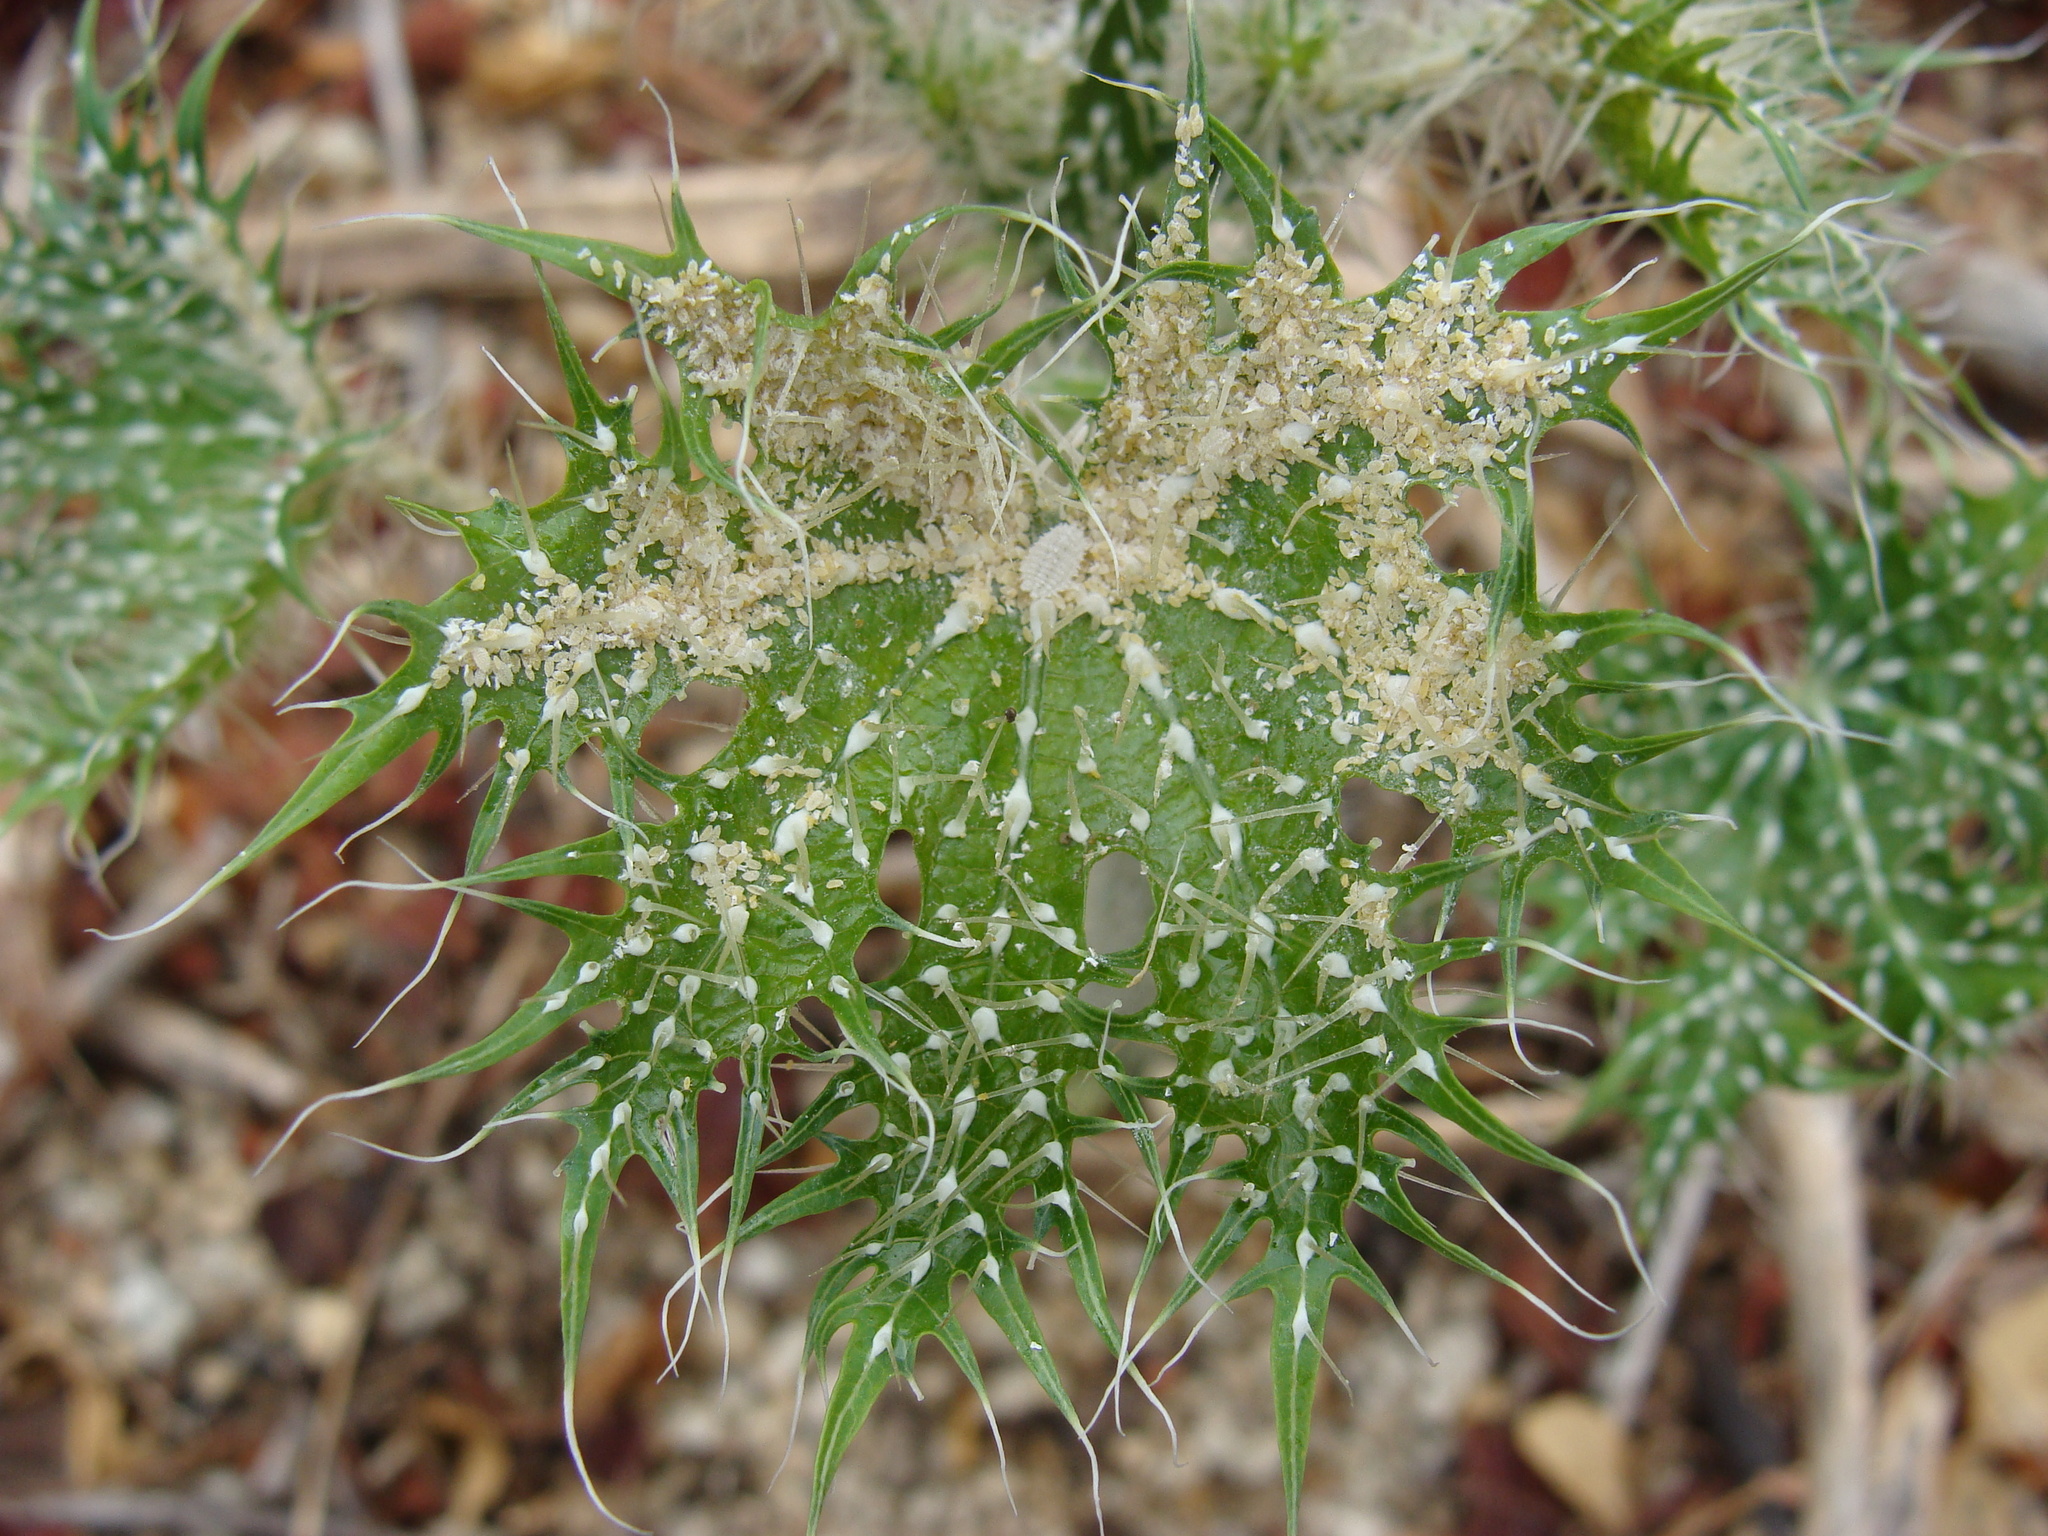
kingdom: Plantae
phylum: Tracheophyta
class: Magnoliopsida
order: Malpighiales
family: Euphorbiaceae
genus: Cnidoscolus
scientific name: Cnidoscolus maculatus
